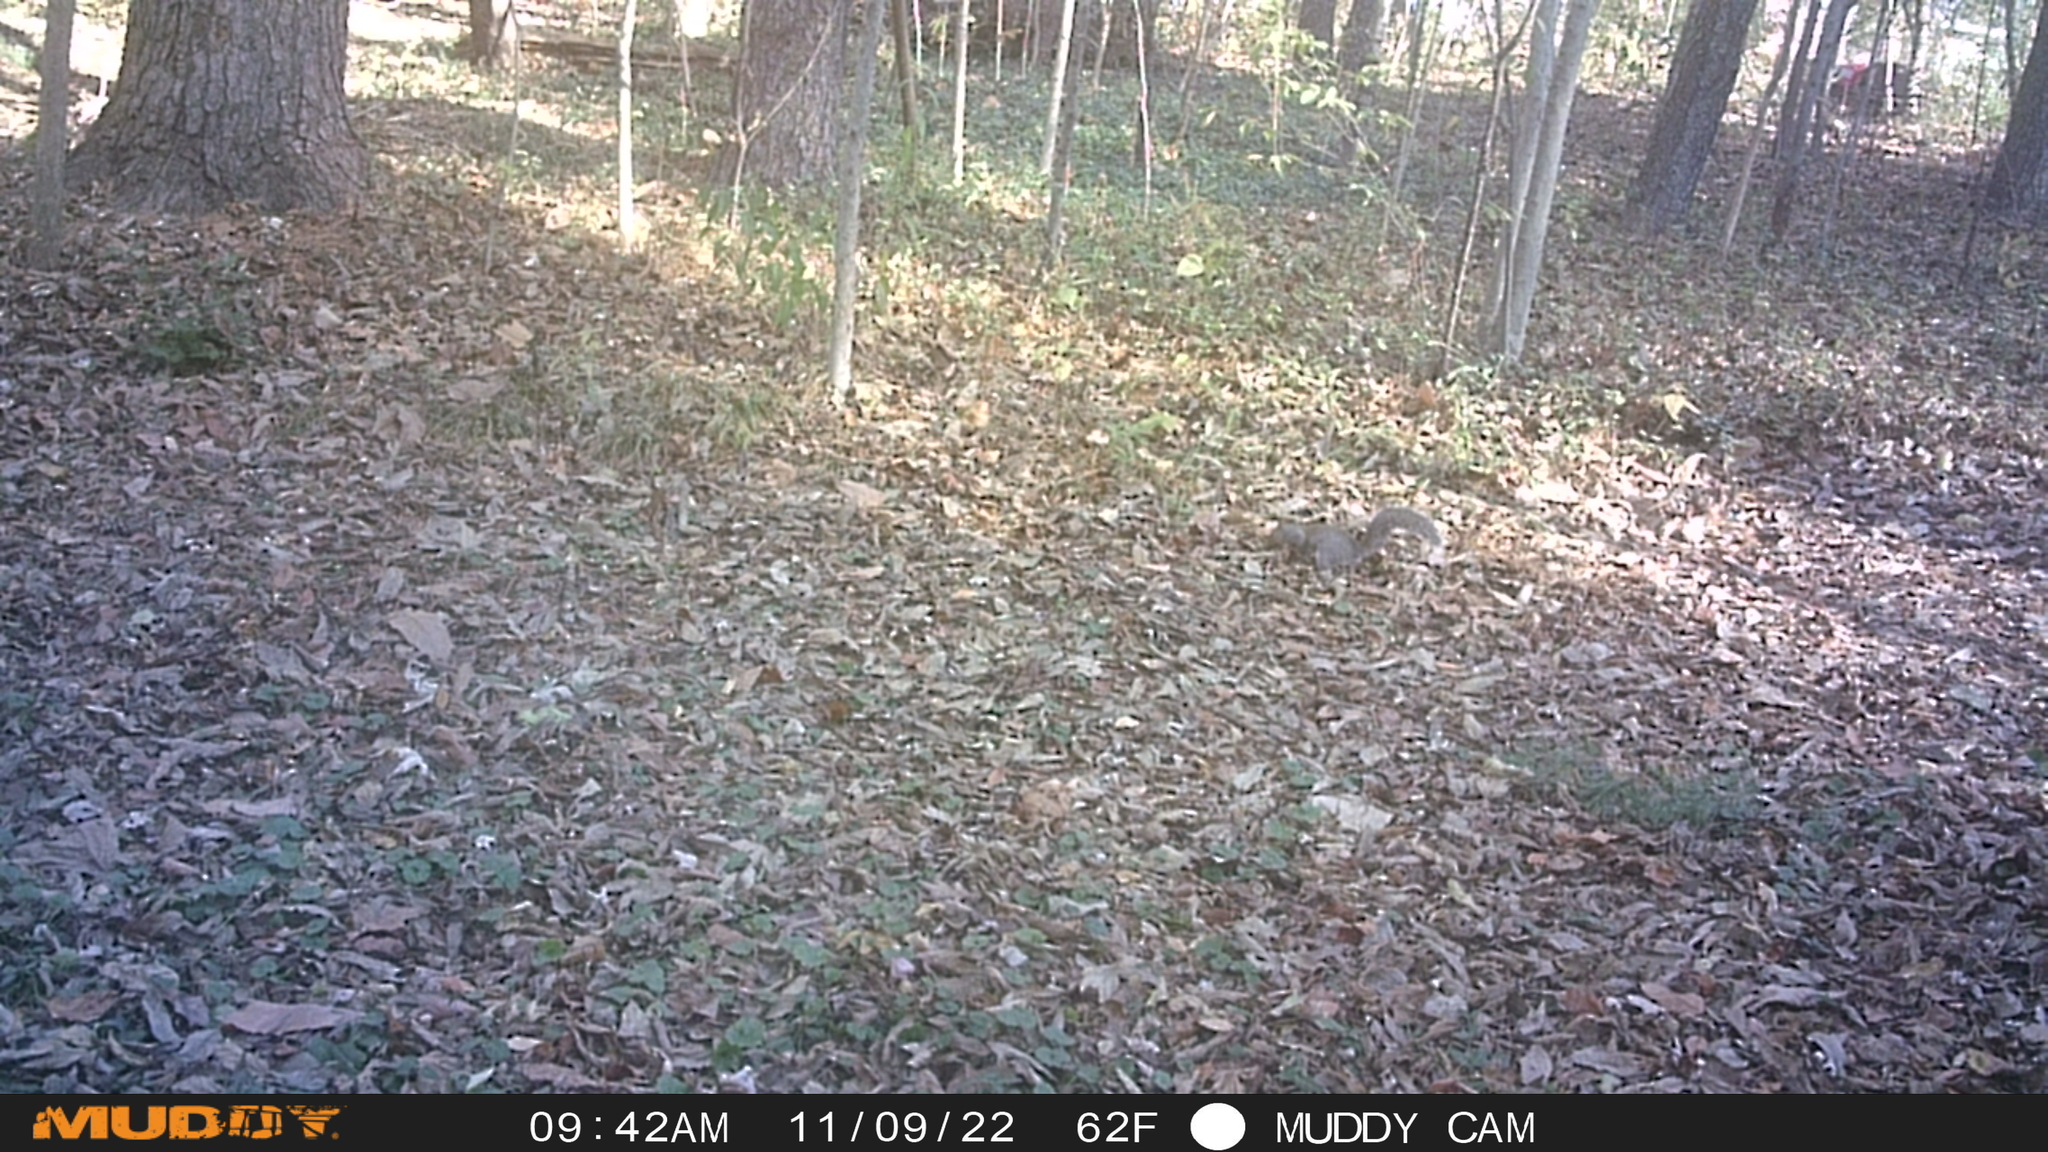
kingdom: Animalia
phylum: Chordata
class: Mammalia
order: Rodentia
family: Sciuridae
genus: Sciurus
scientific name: Sciurus carolinensis
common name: Eastern gray squirrel
